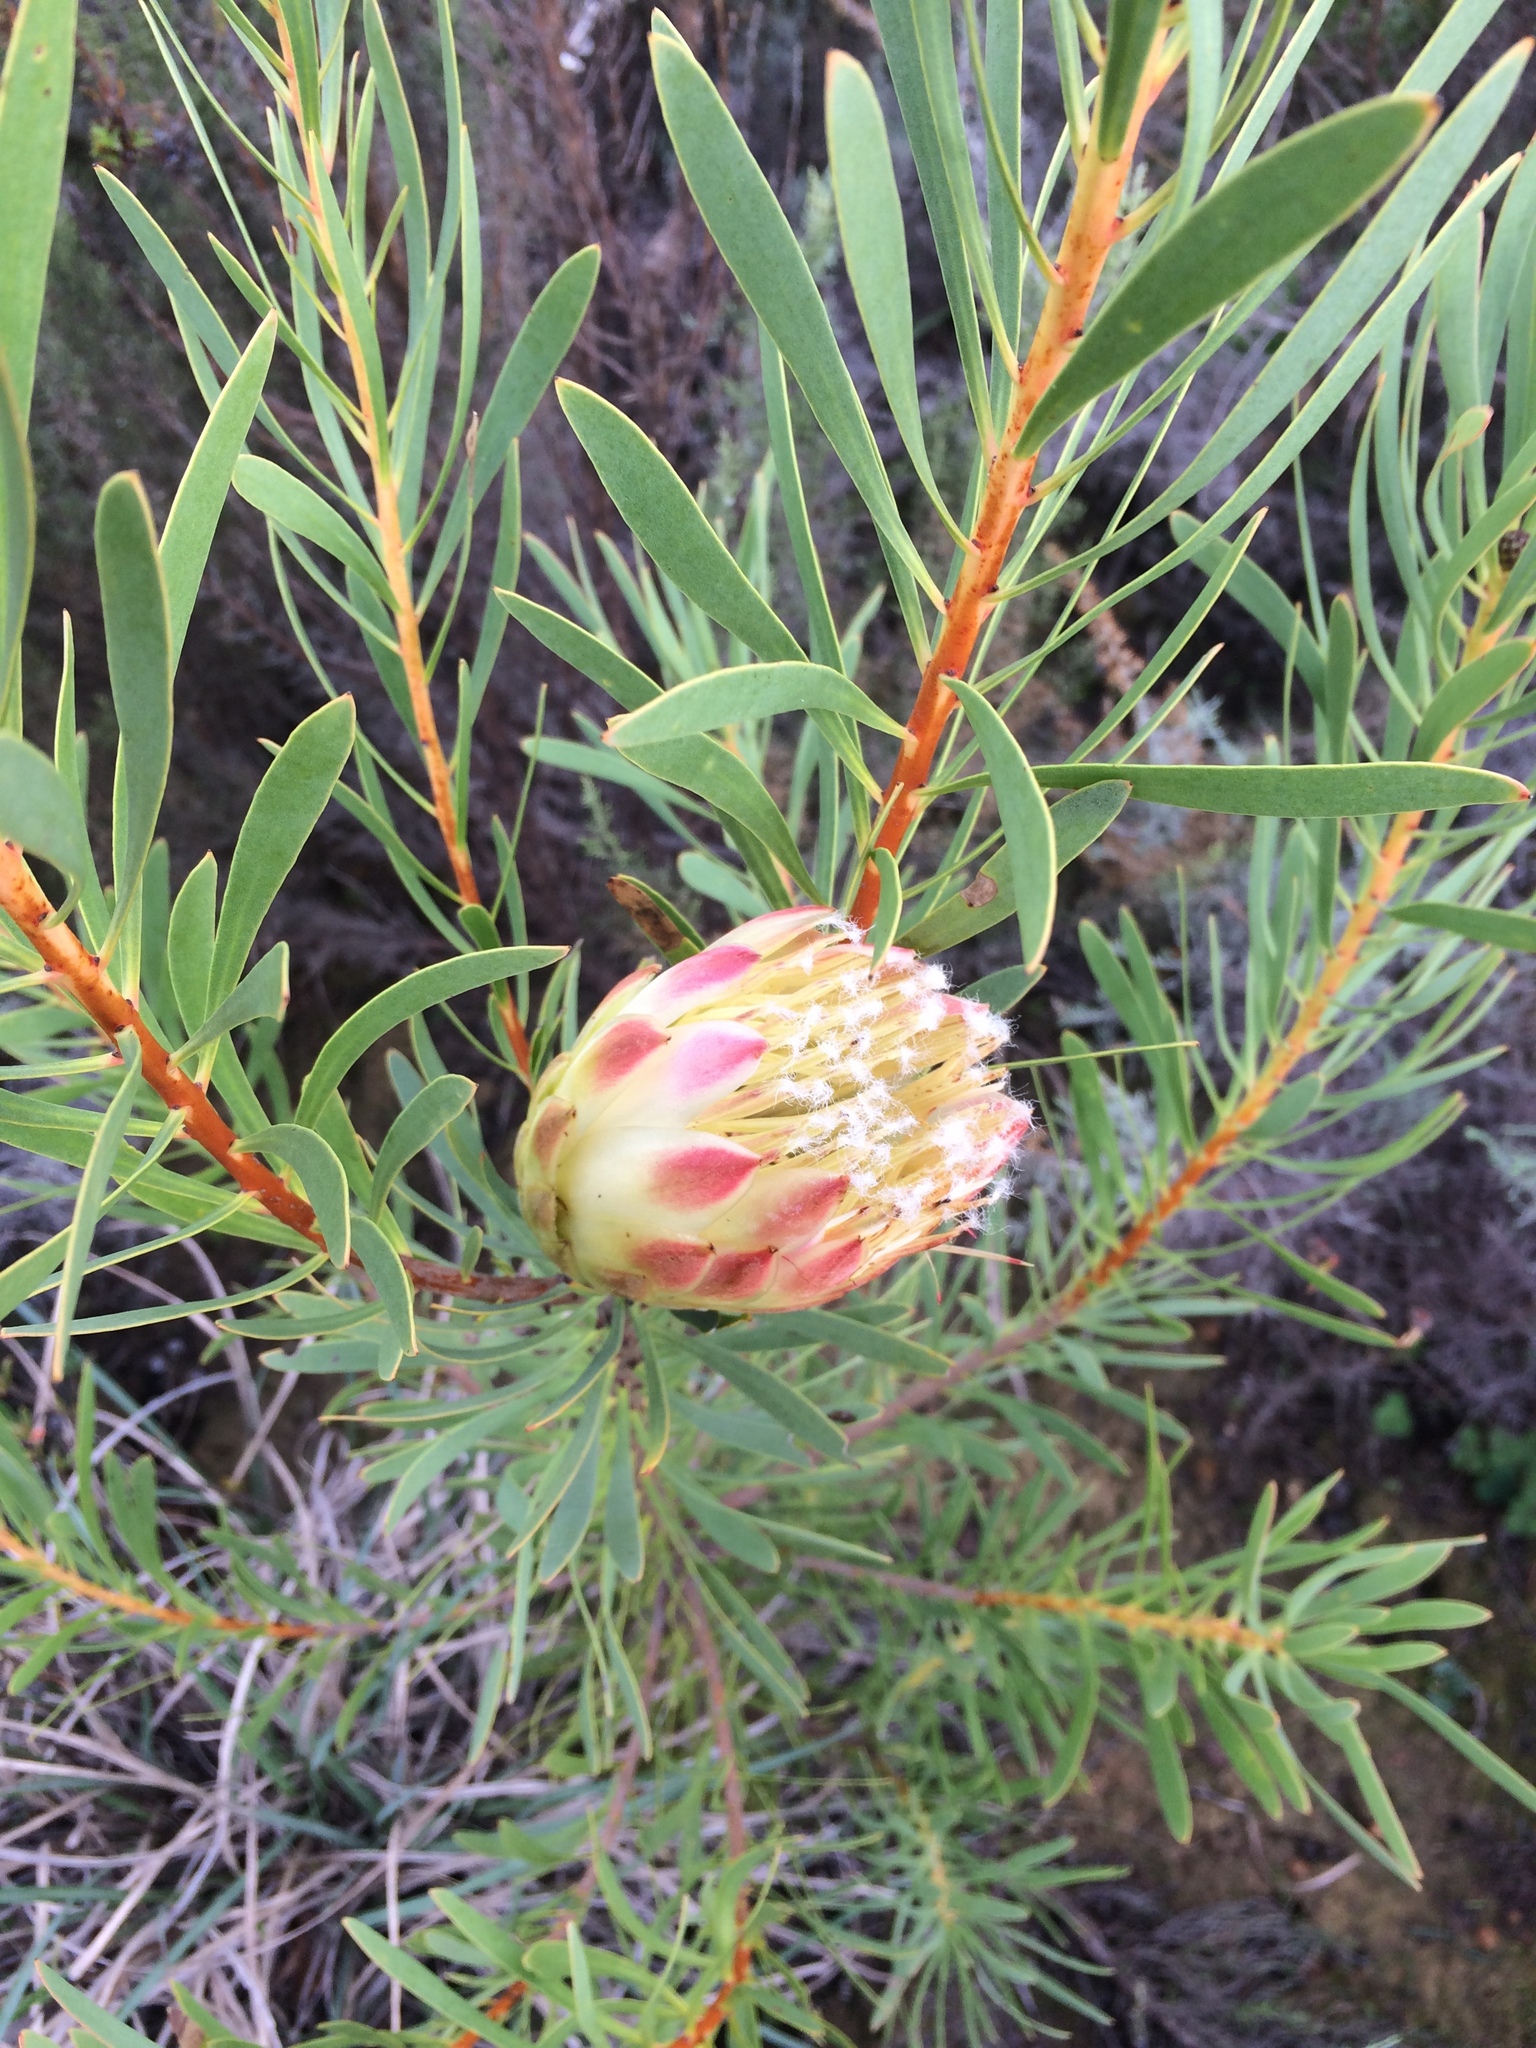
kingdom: Plantae
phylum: Tracheophyta
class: Magnoliopsida
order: Proteales
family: Proteaceae
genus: Protea
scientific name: Protea repens
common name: Sugarbush
